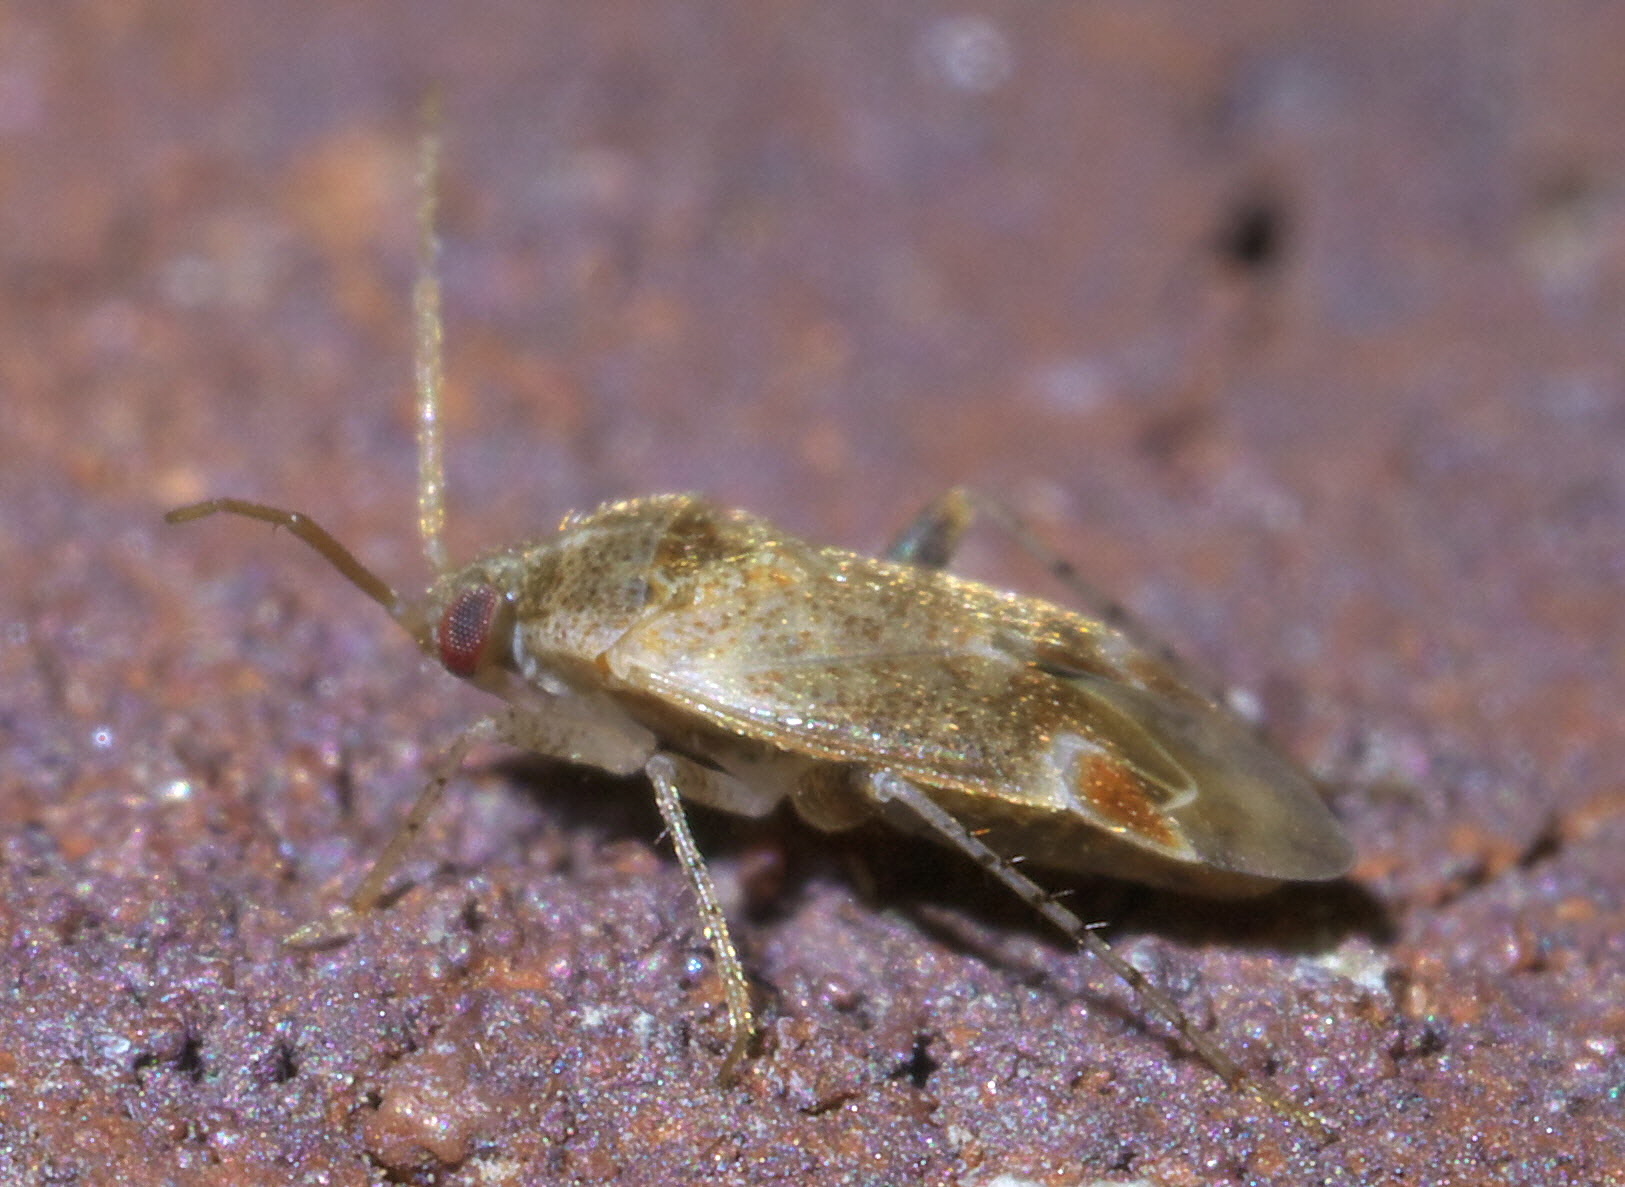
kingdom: Animalia
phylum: Arthropoda
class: Insecta
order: Hemiptera
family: Miridae
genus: Hamatophylus
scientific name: Hamatophylus guttulosus
